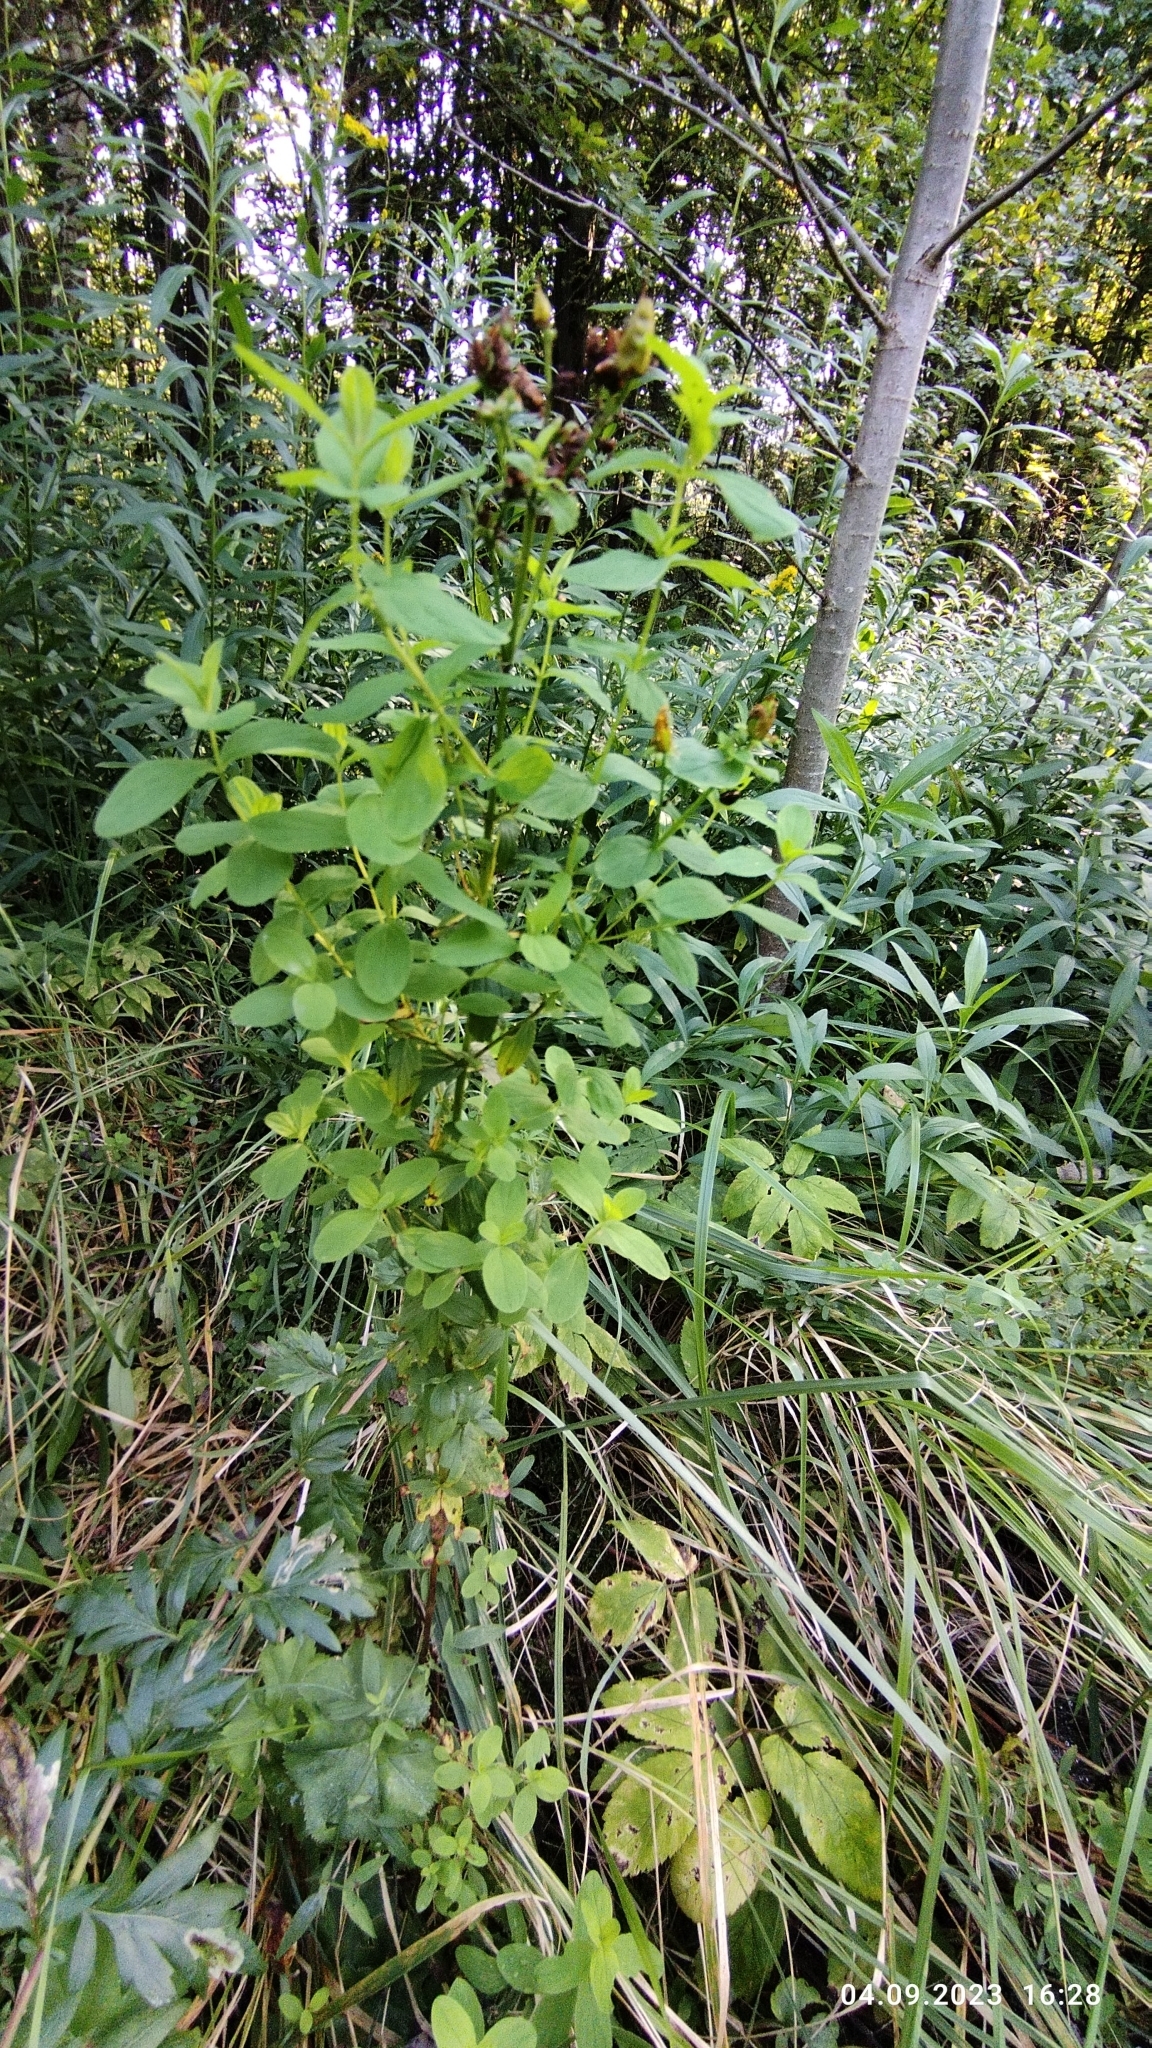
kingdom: Plantae
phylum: Tracheophyta
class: Magnoliopsida
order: Malpighiales
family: Hypericaceae
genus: Hypericum
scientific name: Hypericum maculatum
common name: Imperforate st. john's-wort
